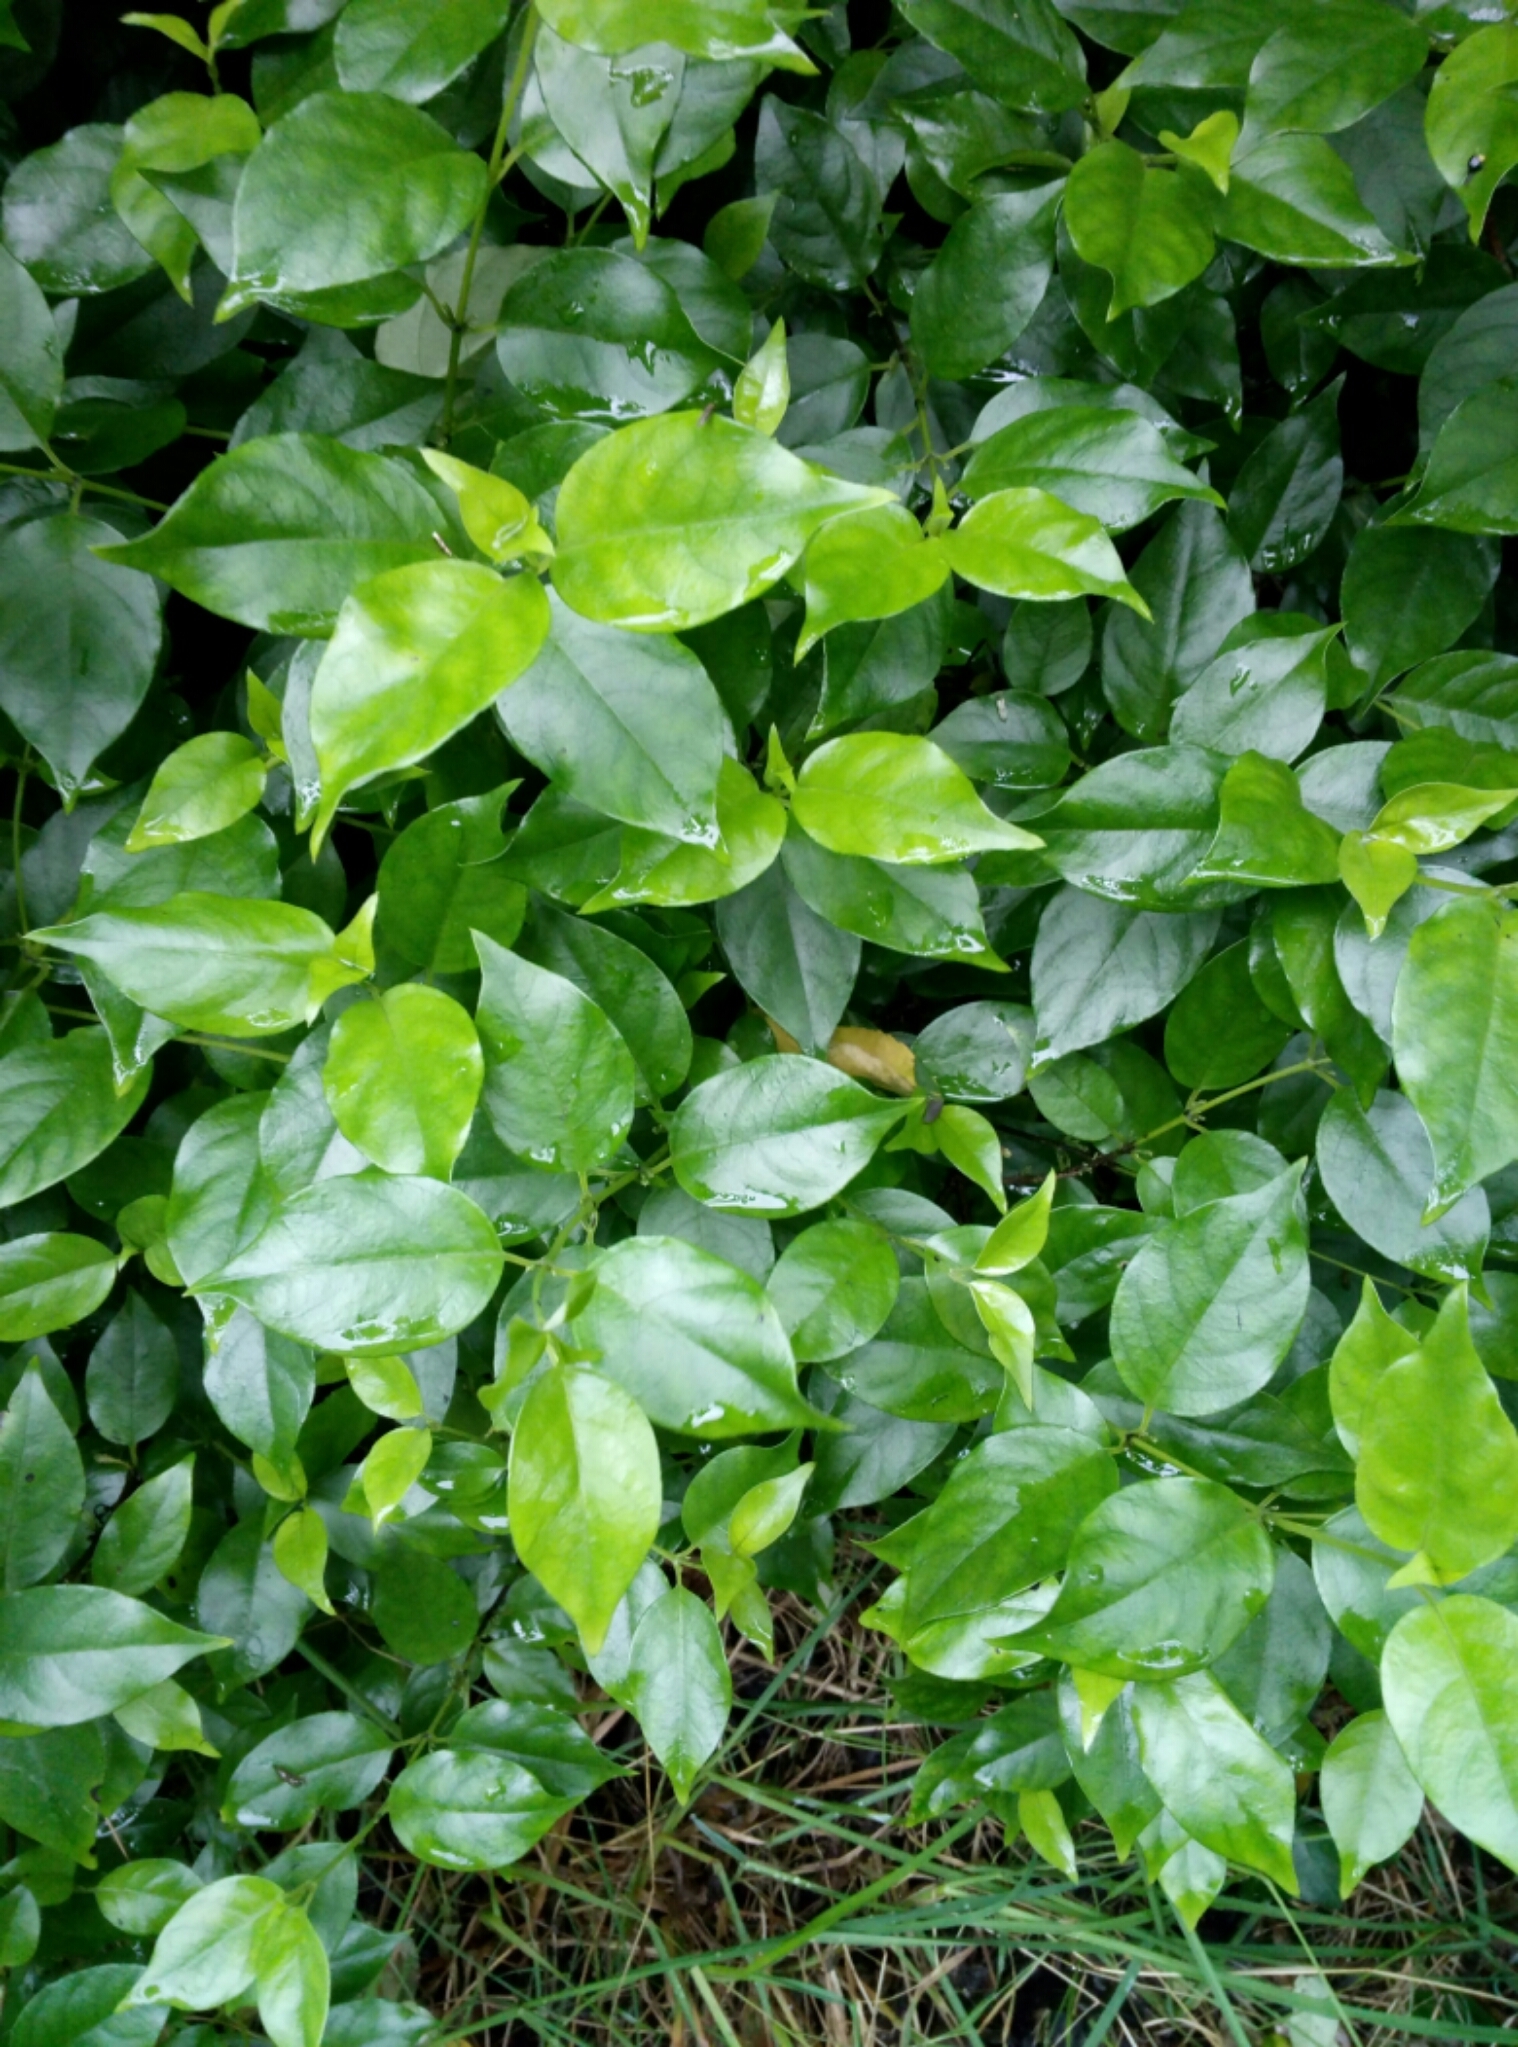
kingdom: Plantae
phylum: Tracheophyta
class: Magnoliopsida
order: Gentianales
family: Loganiaceae
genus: Geniostoma
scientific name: Geniostoma ligustrifolium
